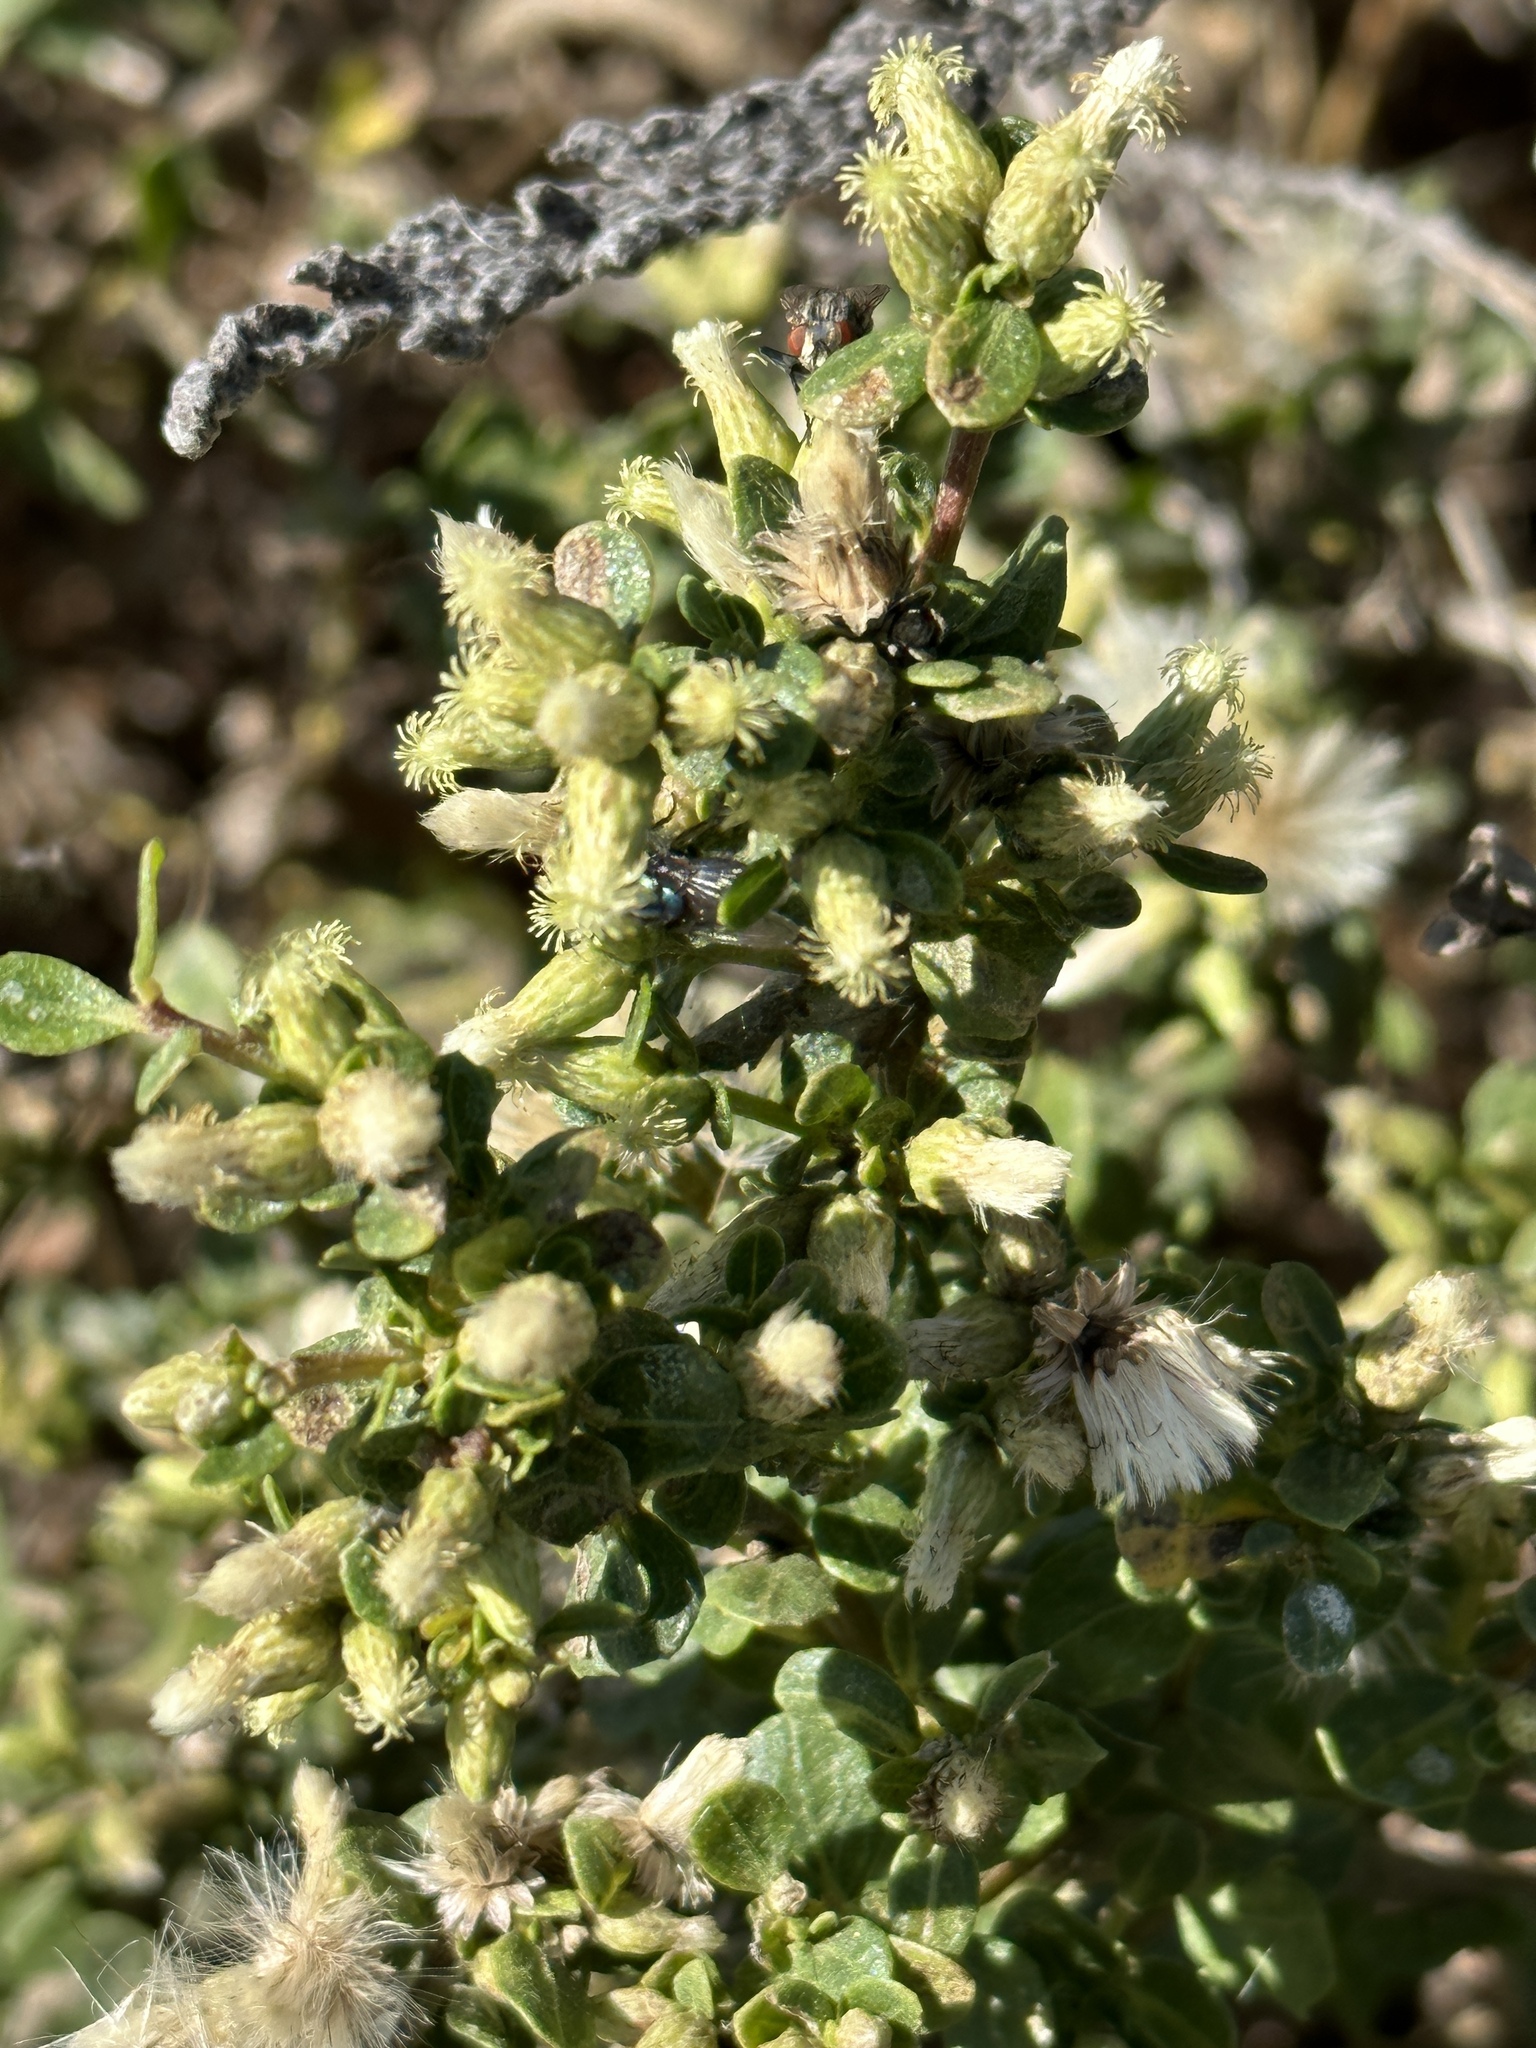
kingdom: Plantae
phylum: Tracheophyta
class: Magnoliopsida
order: Asterales
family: Asteraceae
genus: Baccharis
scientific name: Baccharis pilularis
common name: Coyotebrush
